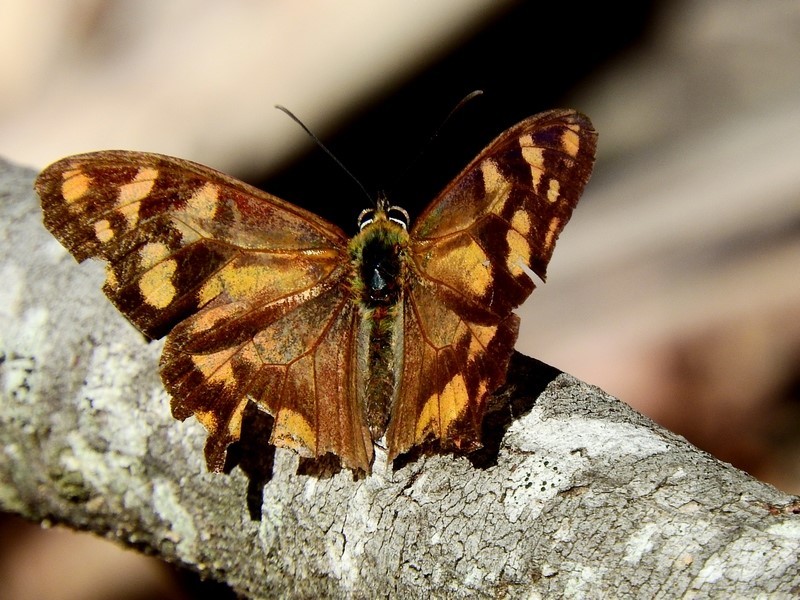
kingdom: Animalia
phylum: Arthropoda
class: Insecta
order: Lepidoptera
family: Nymphalidae
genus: Heteronympha
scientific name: Heteronympha banksii
